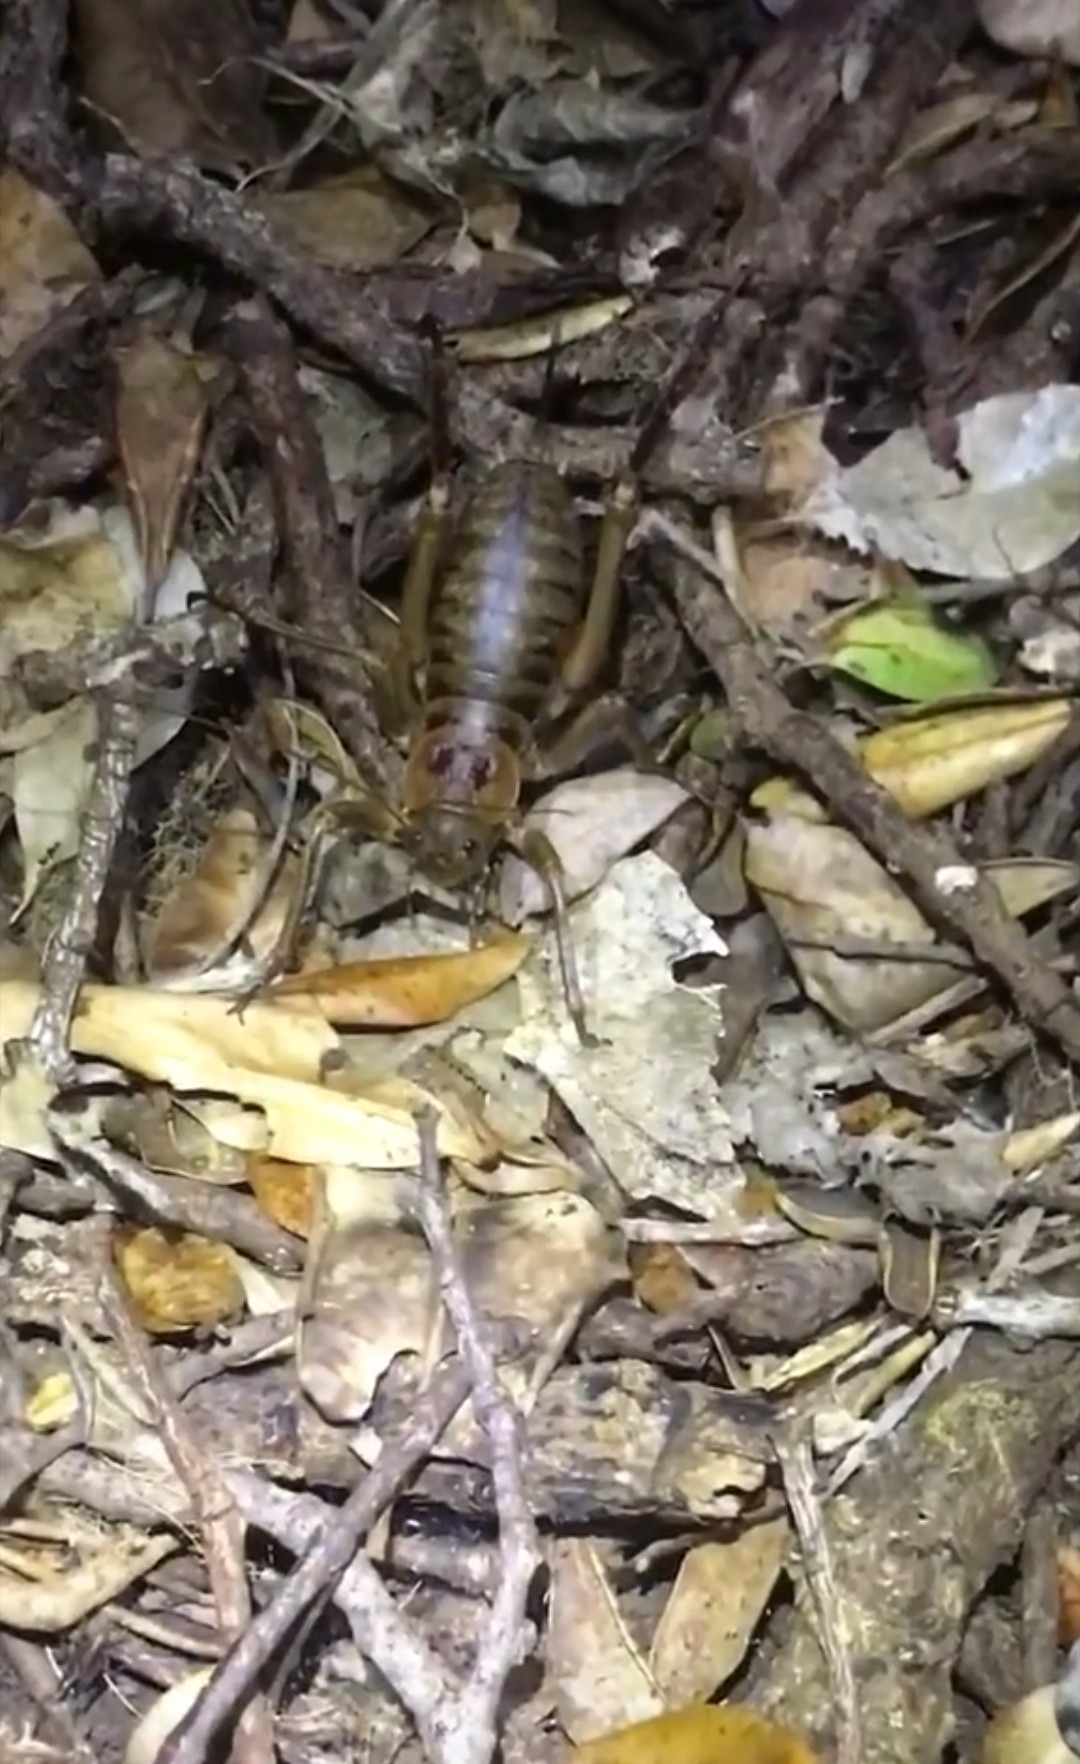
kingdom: Animalia
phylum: Arthropoda
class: Insecta
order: Orthoptera
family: Anostostomatidae
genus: Deinacrida
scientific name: Deinacrida fallai
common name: Poor knights weta
